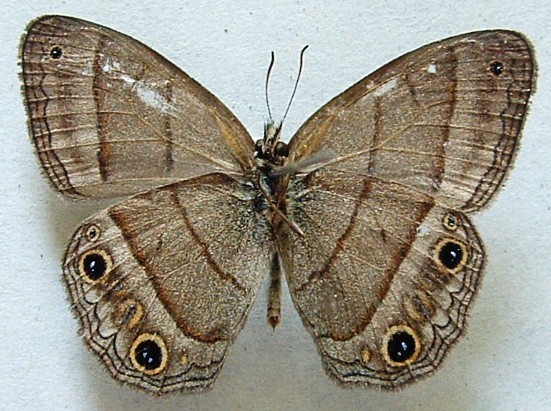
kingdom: Animalia
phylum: Arthropoda
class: Insecta
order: Lepidoptera
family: Nymphalidae
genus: Euptychia
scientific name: Euptychia Cissia pompilia
